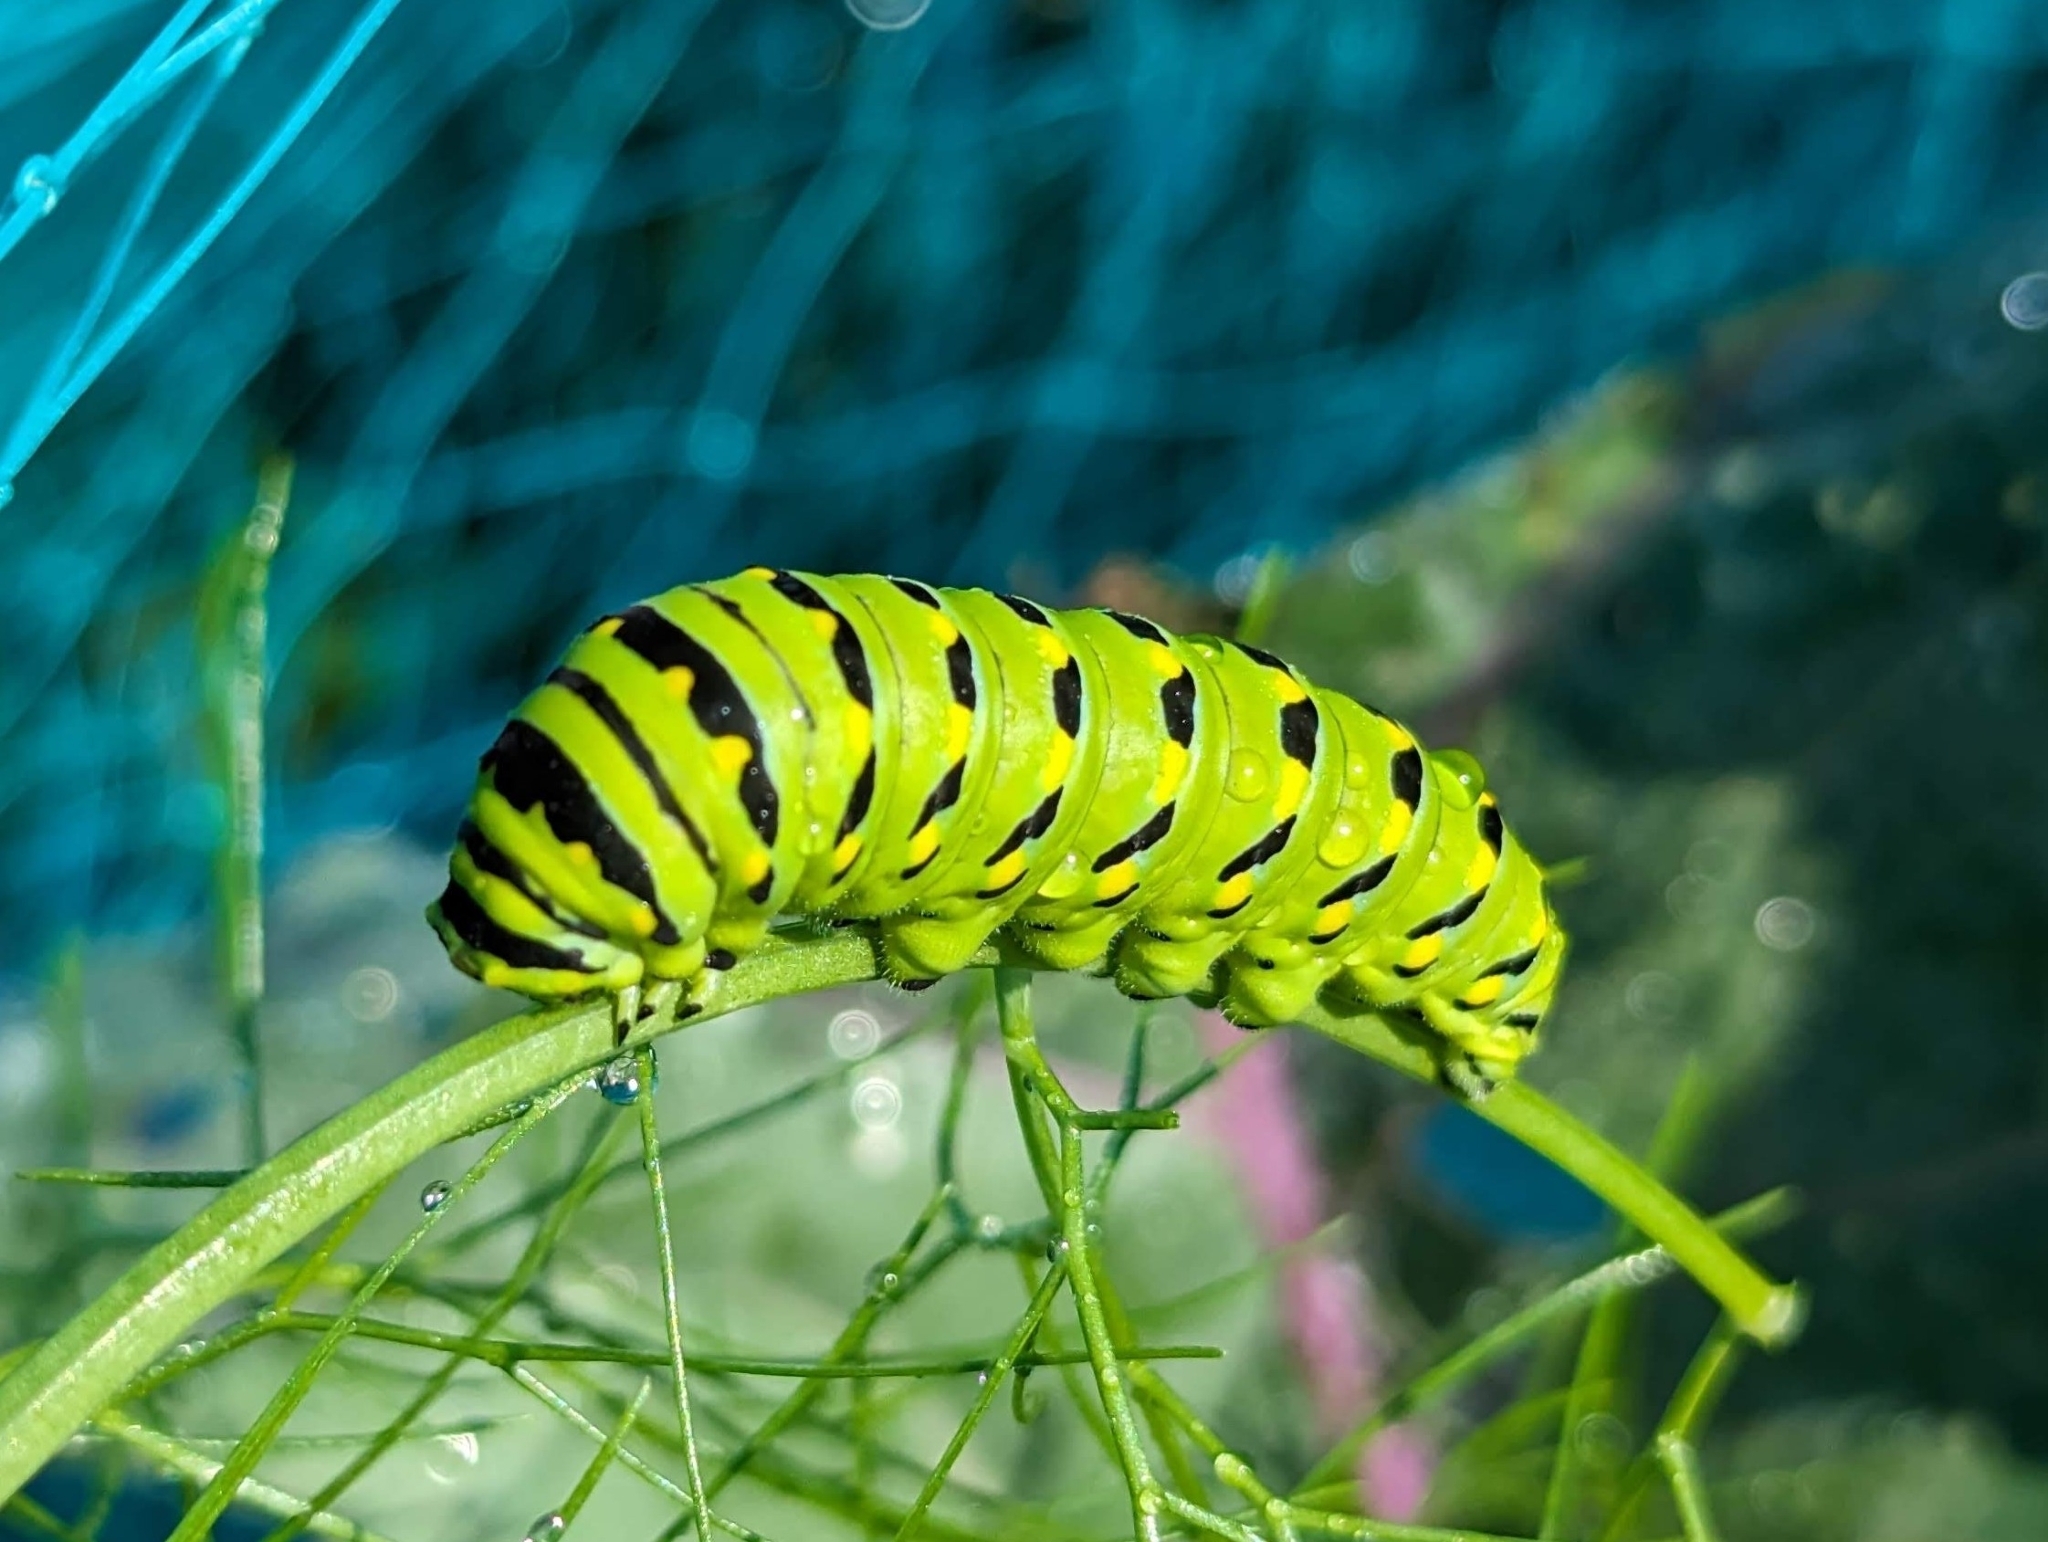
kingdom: Animalia
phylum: Arthropoda
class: Insecta
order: Lepidoptera
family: Papilionidae
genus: Papilio
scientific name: Papilio polyxenes
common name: Black swallowtail
